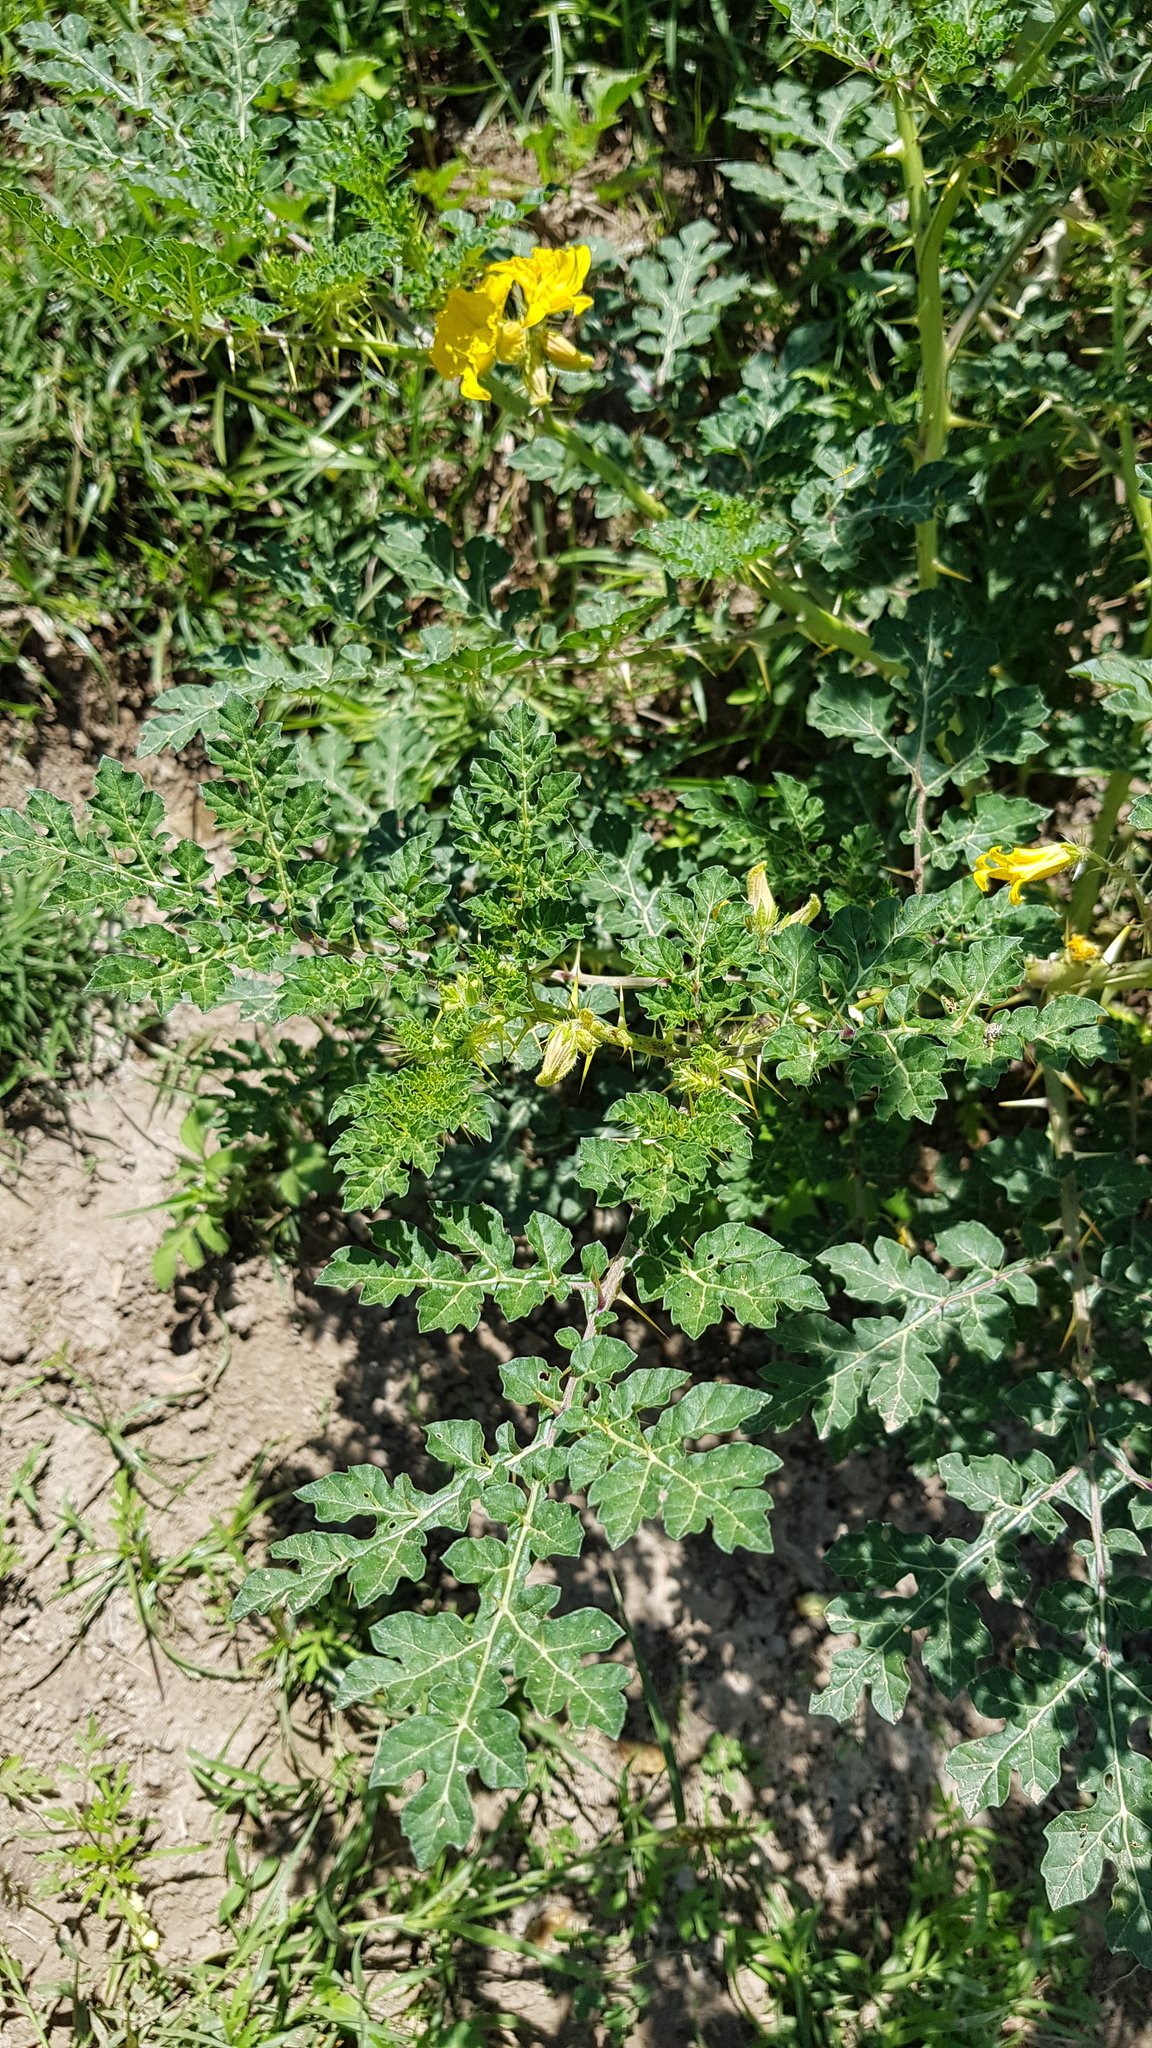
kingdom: Plantae
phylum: Tracheophyta
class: Magnoliopsida
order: Solanales
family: Solanaceae
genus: Solanum
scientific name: Solanum angustifolium
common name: Buffalobur nightshade
